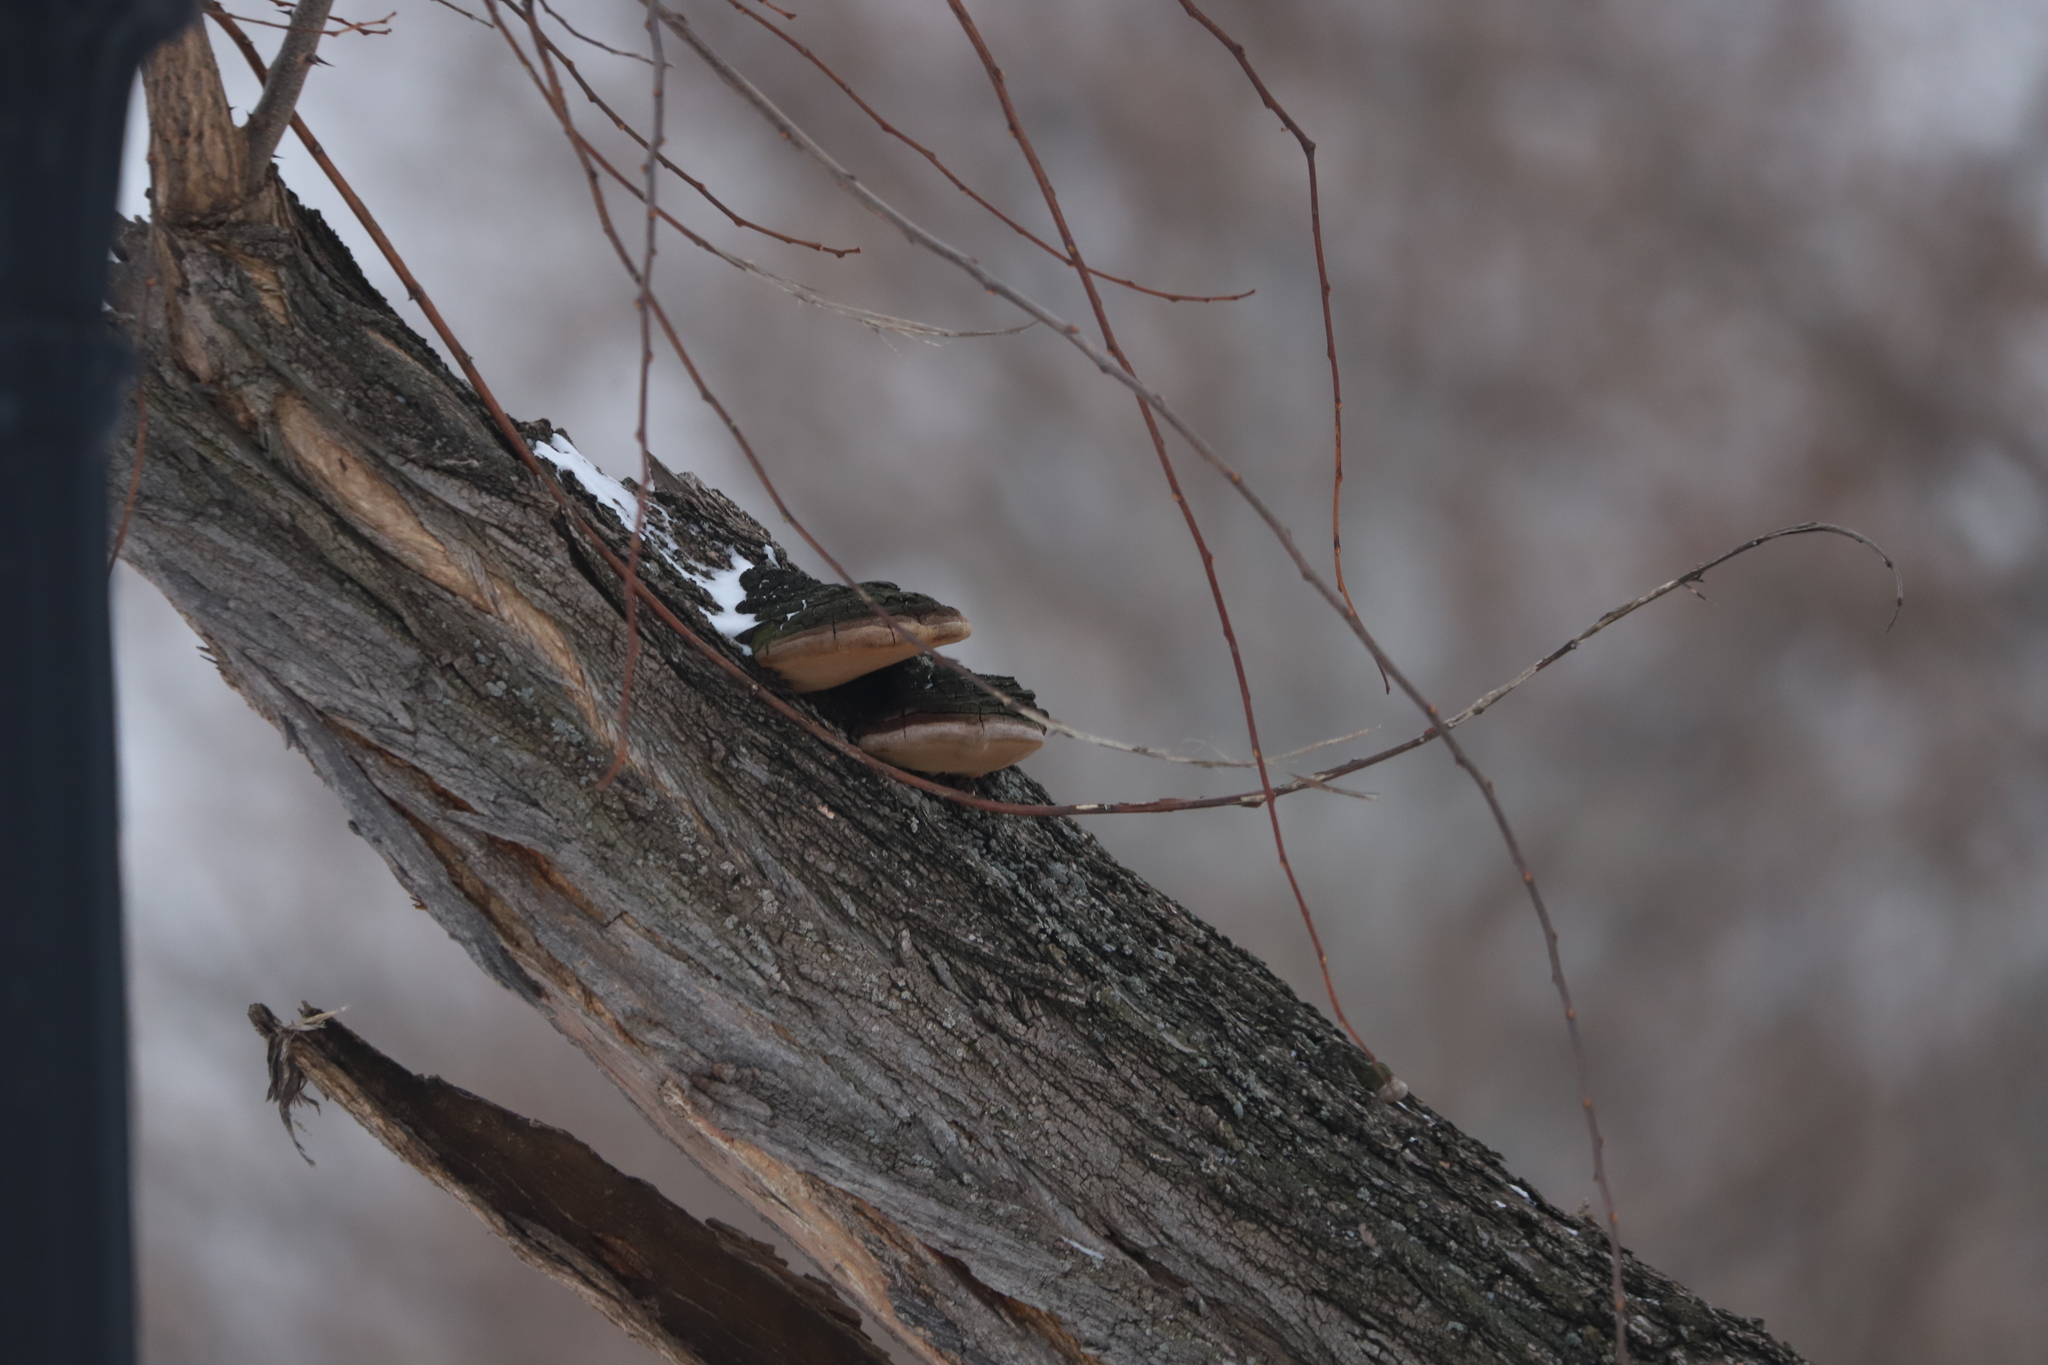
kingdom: Fungi
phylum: Basidiomycota
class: Agaricomycetes
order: Hymenochaetales
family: Hymenochaetaceae
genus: Phellinus
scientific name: Phellinus robiniae
